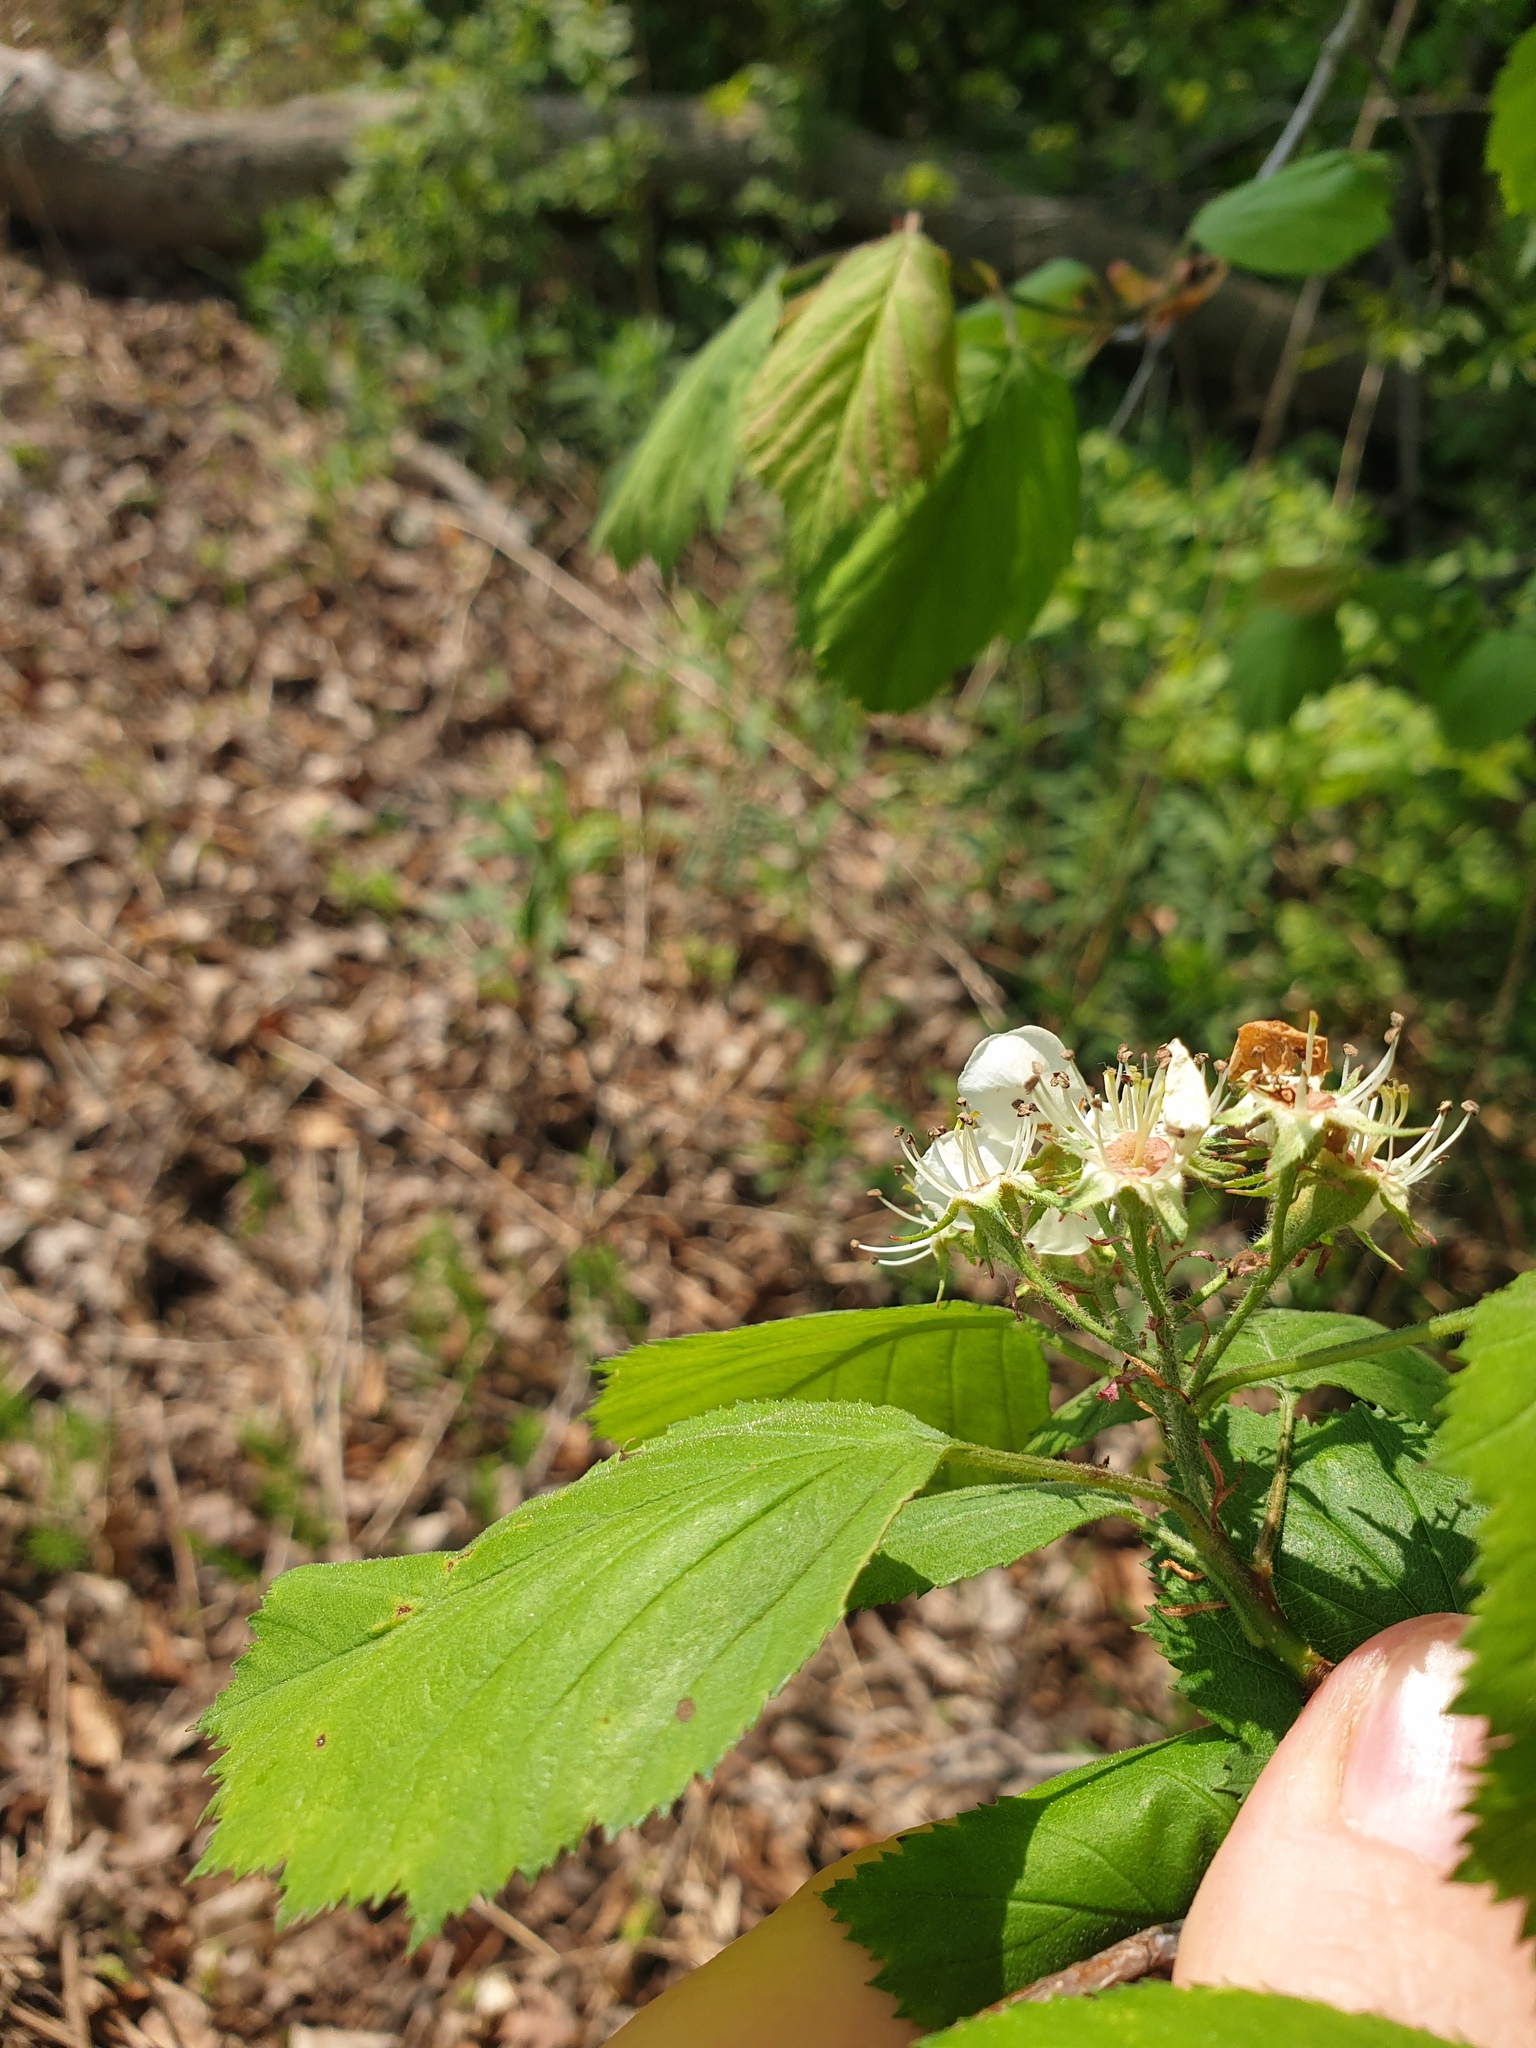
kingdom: Plantae
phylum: Tracheophyta
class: Magnoliopsida
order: Rosales
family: Rosaceae
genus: Crataegus
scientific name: Crataegus coccinea
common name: Scarlet hawthorn
